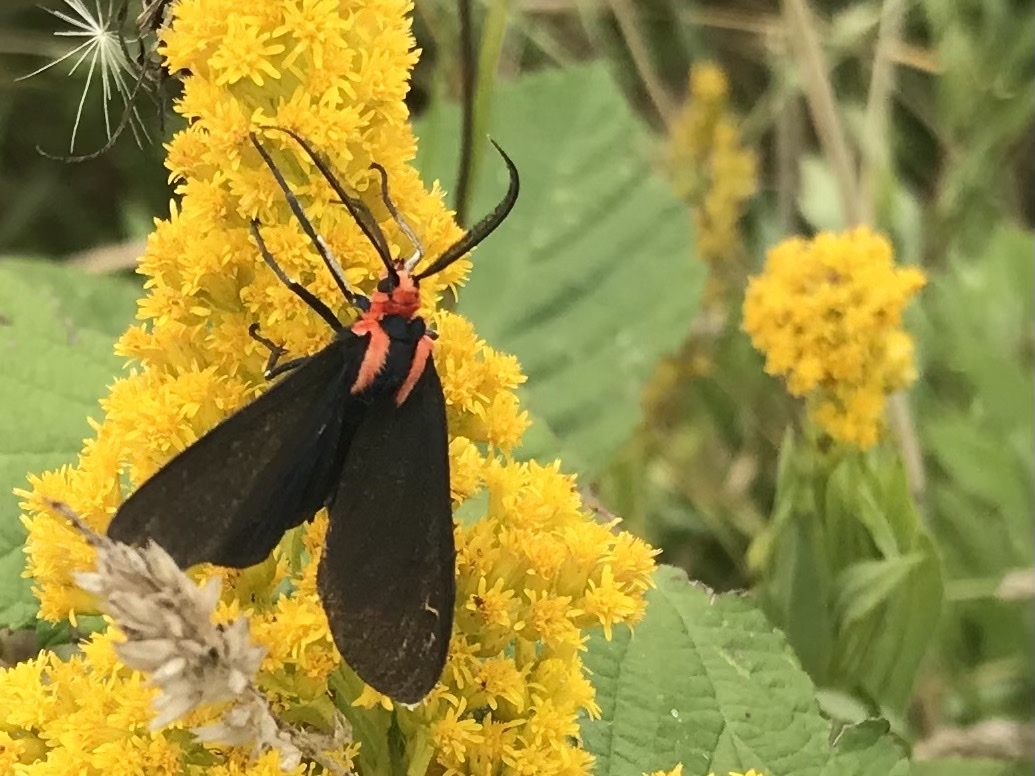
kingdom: Animalia
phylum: Arthropoda
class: Insecta
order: Lepidoptera
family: Erebidae
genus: Ctenucha
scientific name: Ctenucha rubroscapus
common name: Red-shouldered ctenucha
